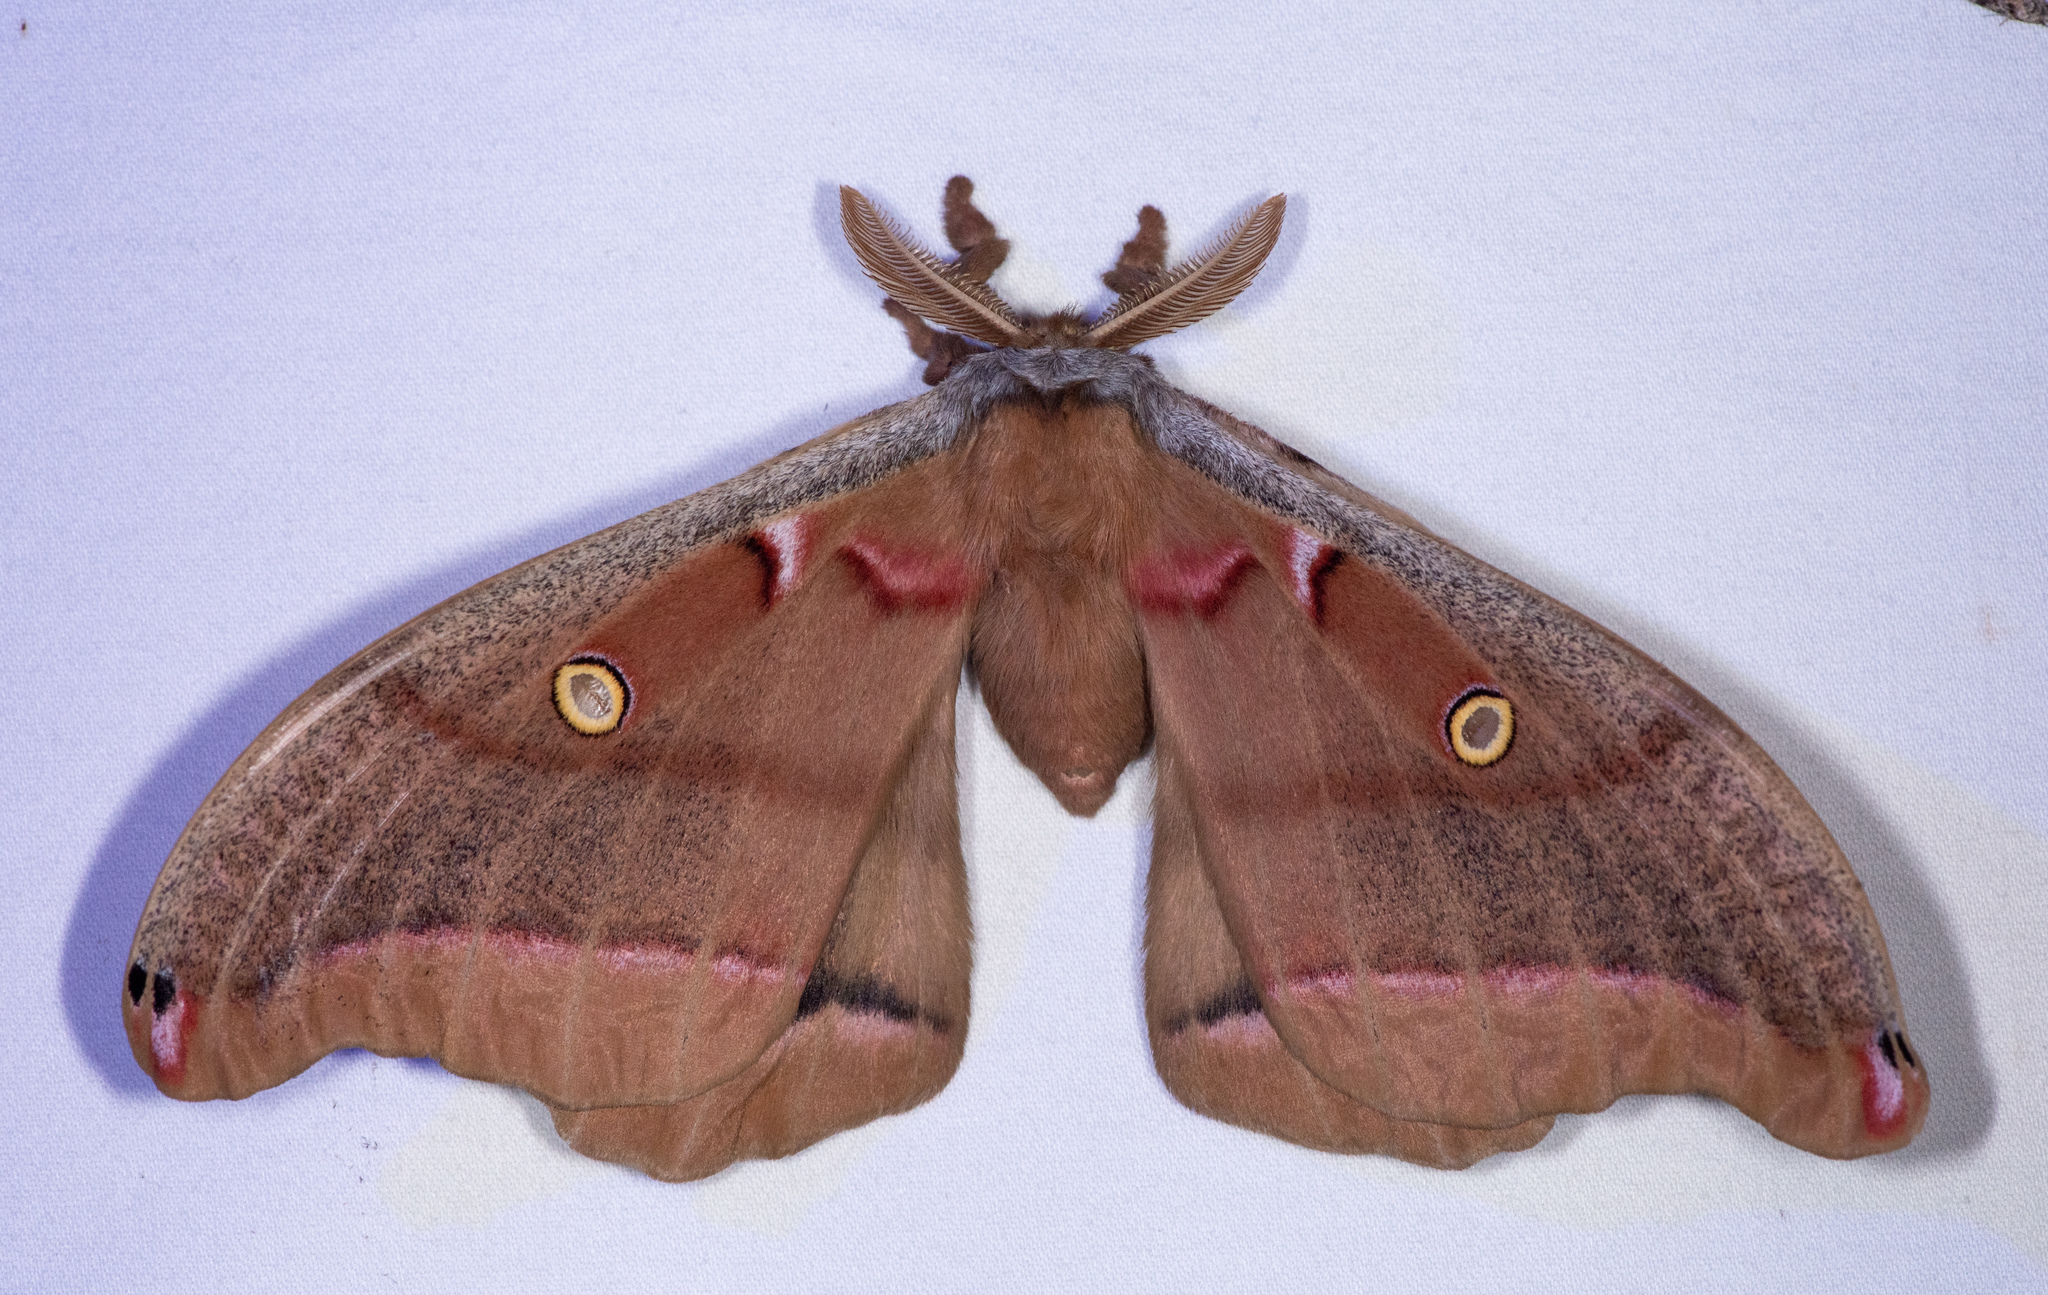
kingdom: Animalia
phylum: Arthropoda
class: Insecta
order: Lepidoptera
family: Saturniidae
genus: Antheraea
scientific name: Antheraea polyphemus
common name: Polyphemus moth
